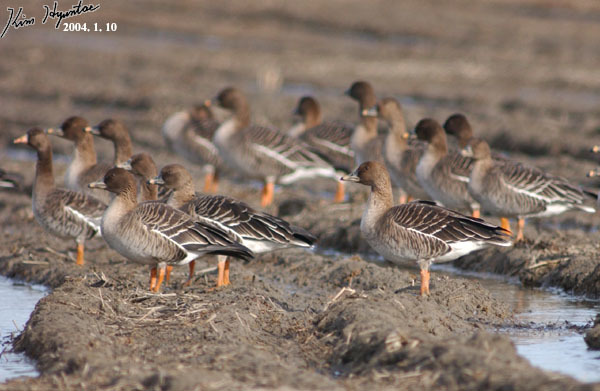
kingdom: Animalia
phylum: Chordata
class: Aves
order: Anseriformes
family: Anatidae
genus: Anser
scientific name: Anser fabalis
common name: Bean goose
